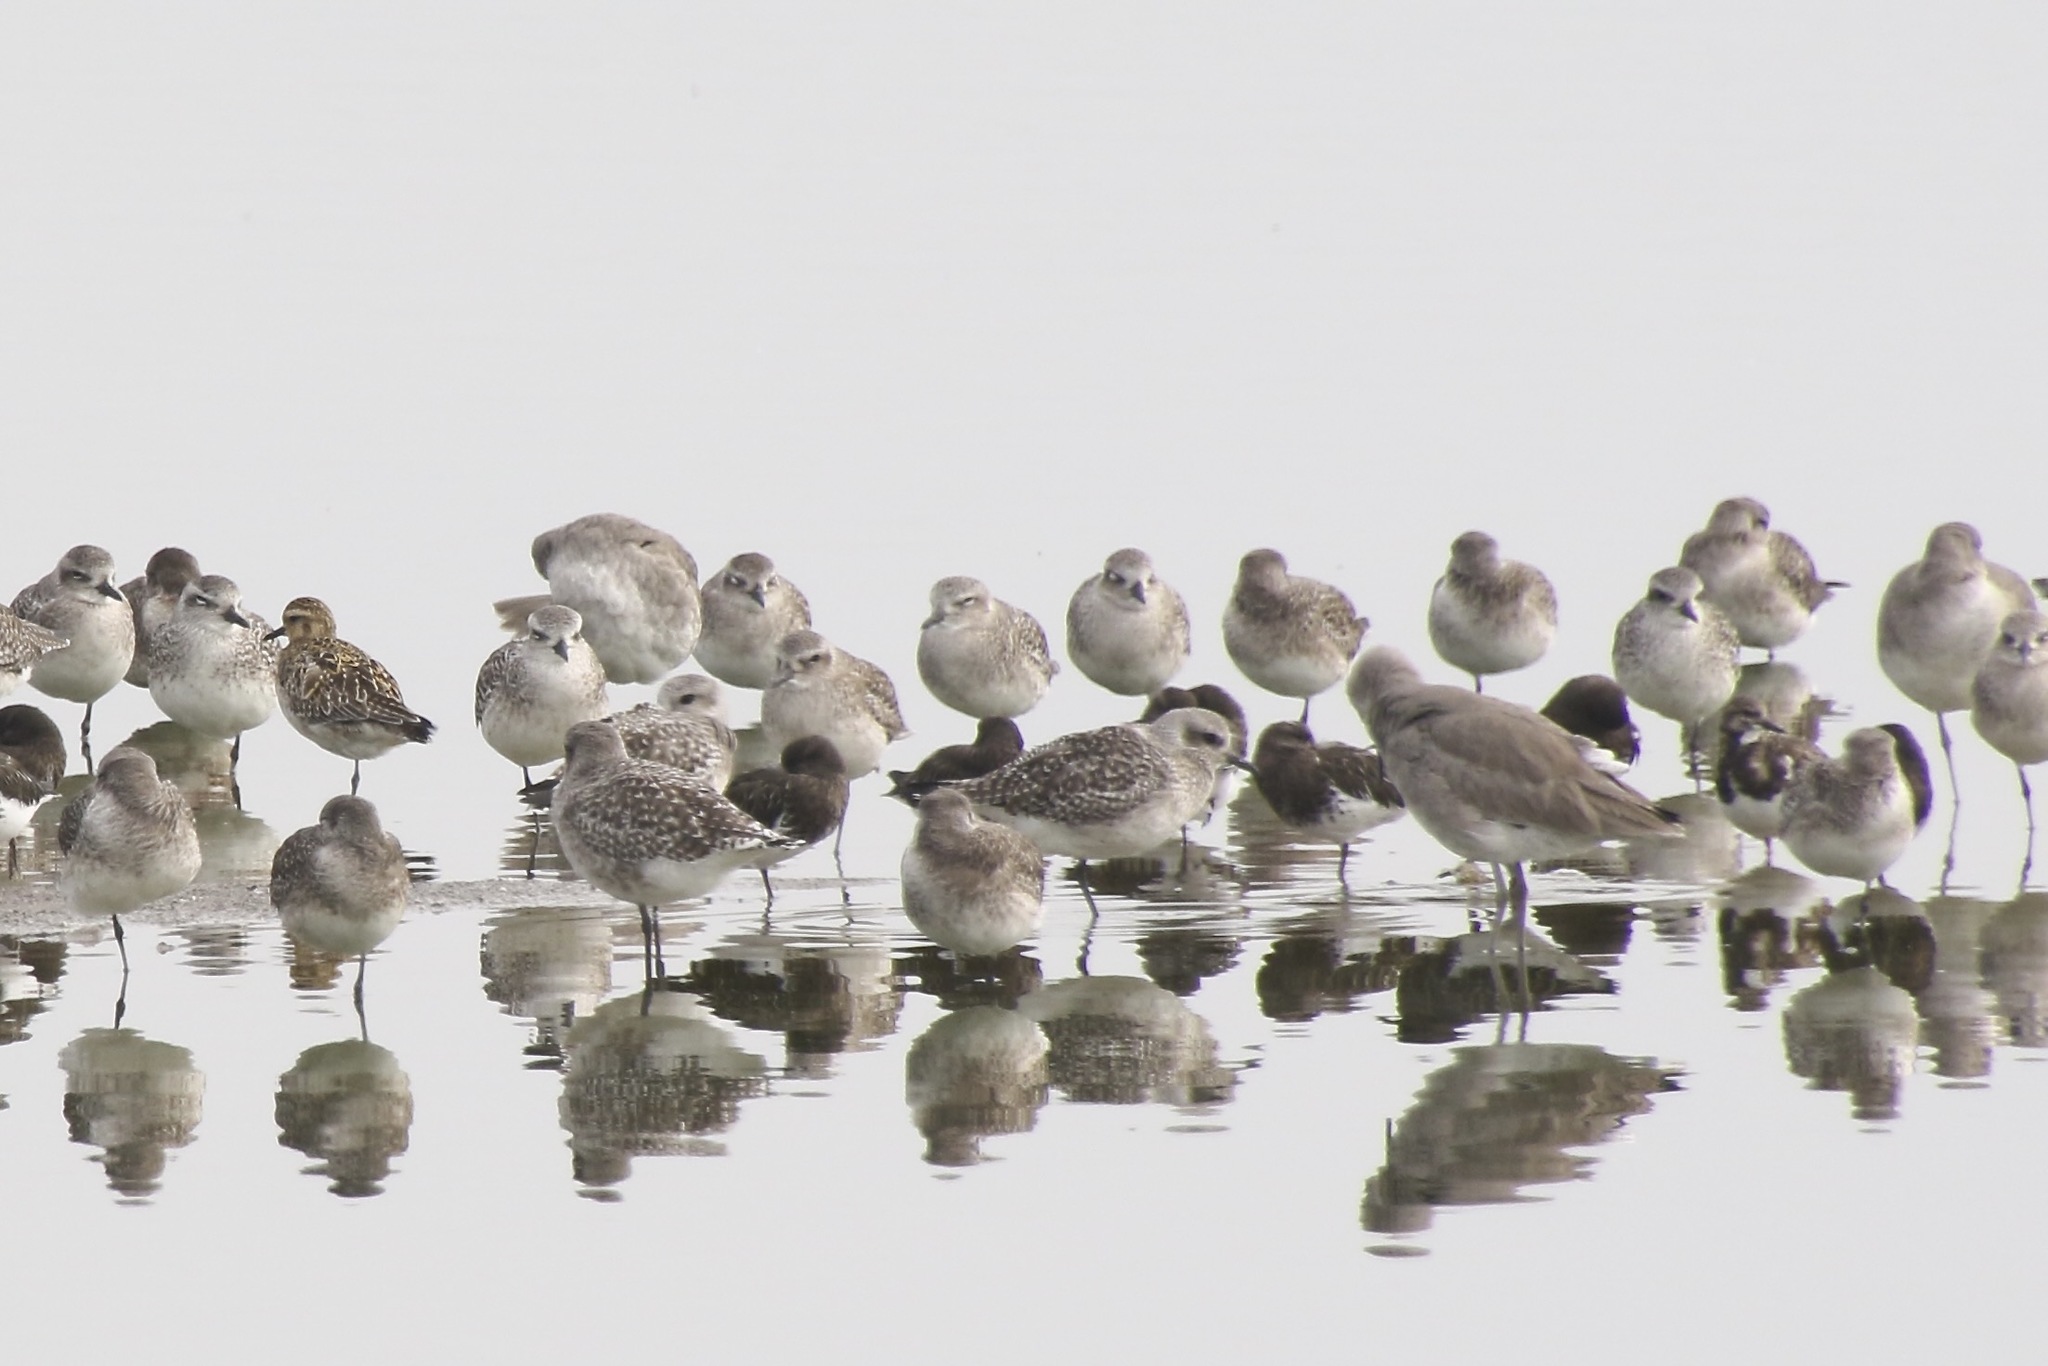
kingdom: Animalia
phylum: Chordata
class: Aves
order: Charadriiformes
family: Scolopacidae
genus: Arenaria
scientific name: Arenaria interpres
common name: Ruddy turnstone
